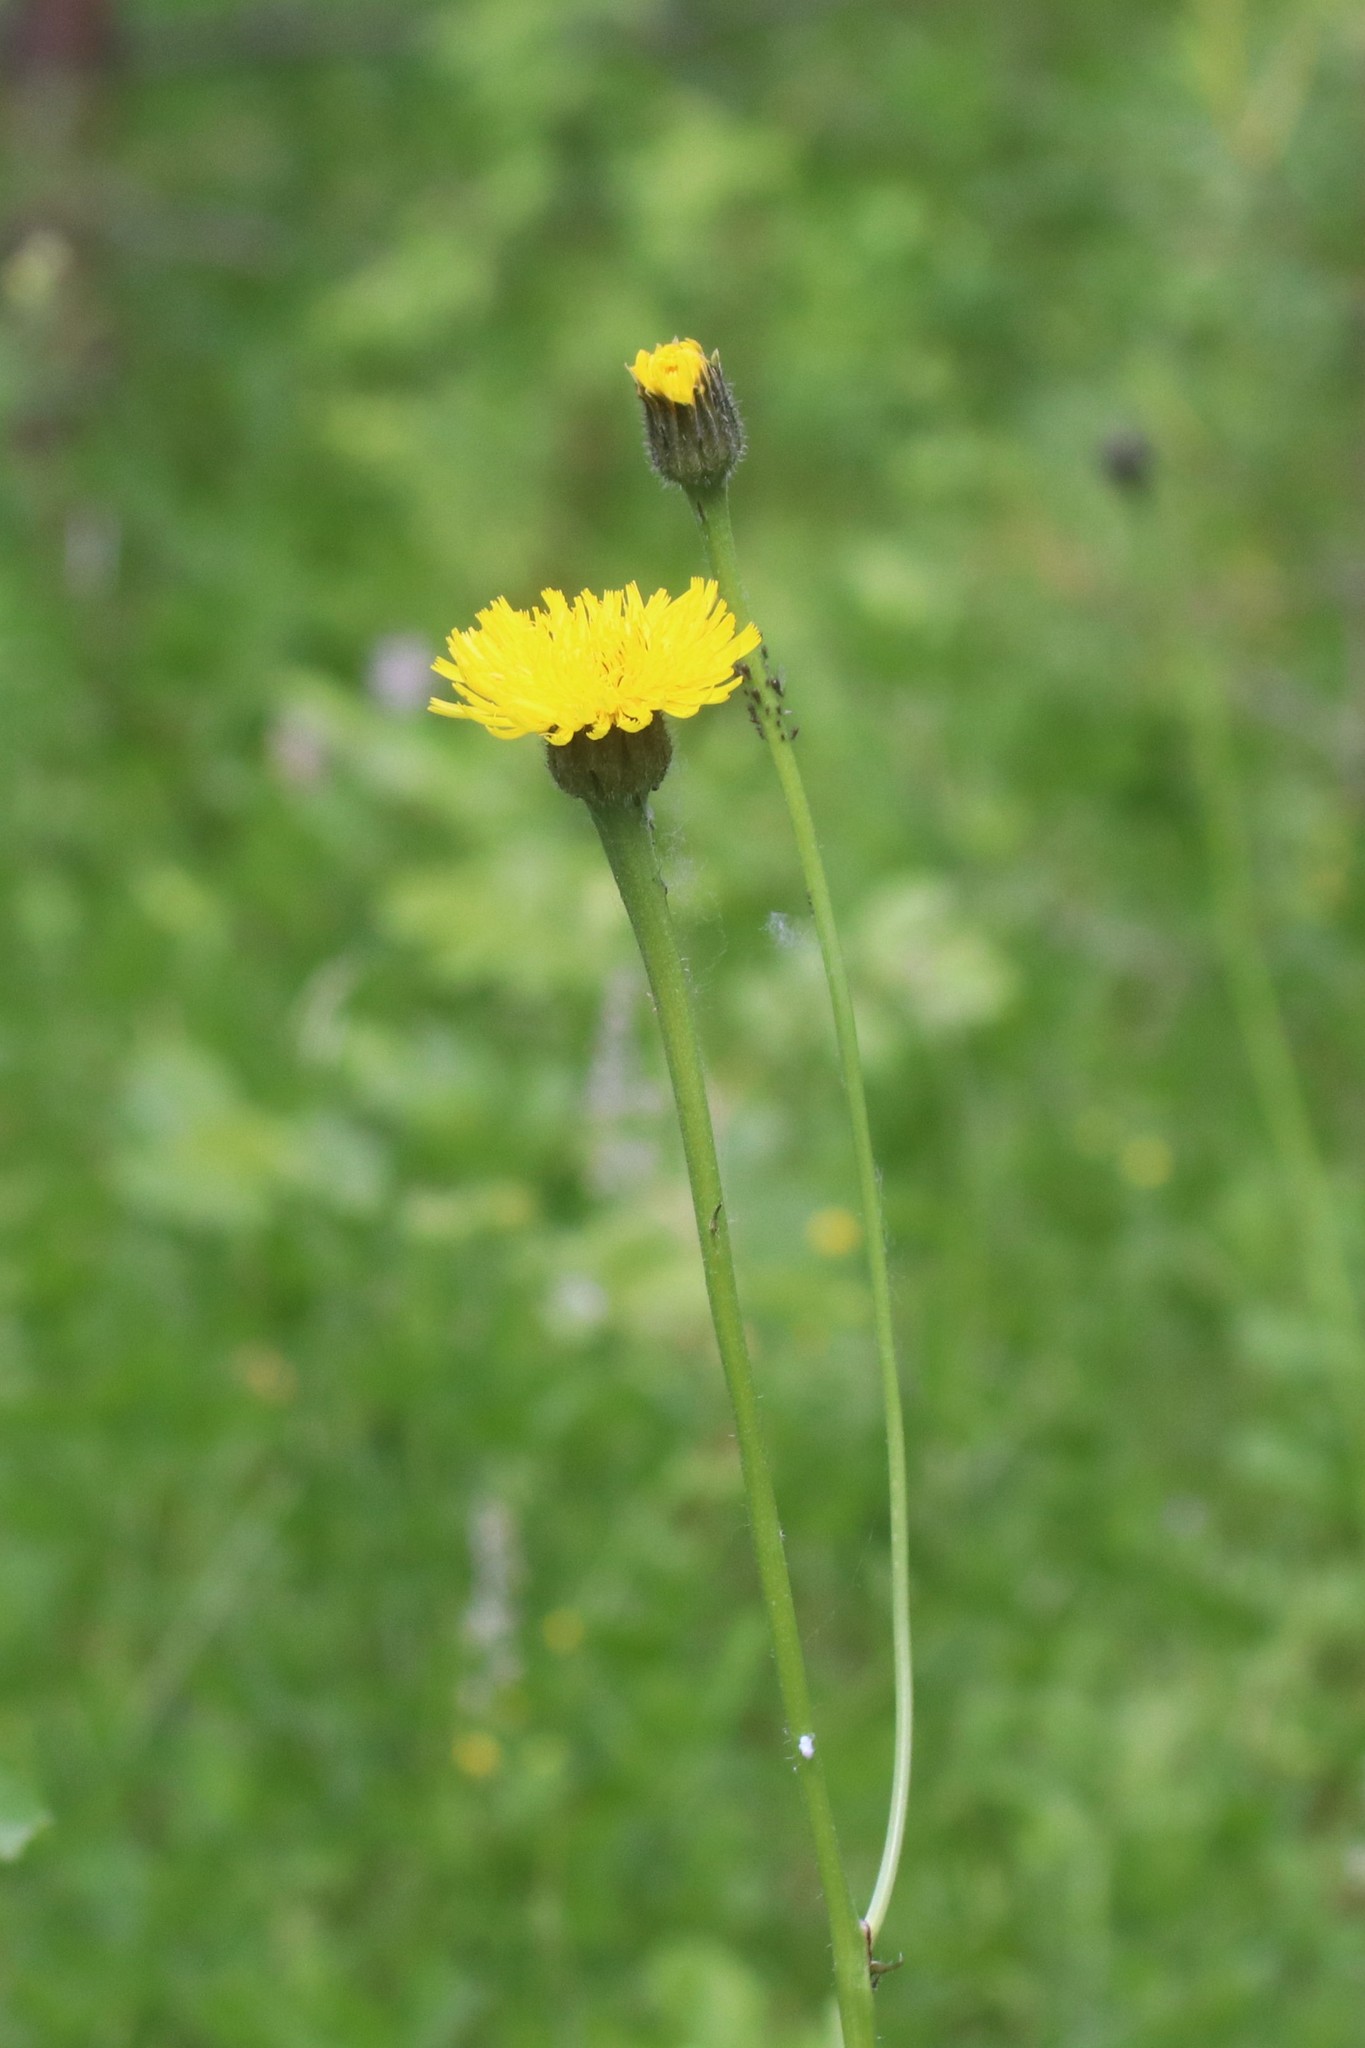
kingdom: Plantae
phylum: Tracheophyta
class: Magnoliopsida
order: Asterales
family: Asteraceae
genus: Trommsdorffia
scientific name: Trommsdorffia maculata
